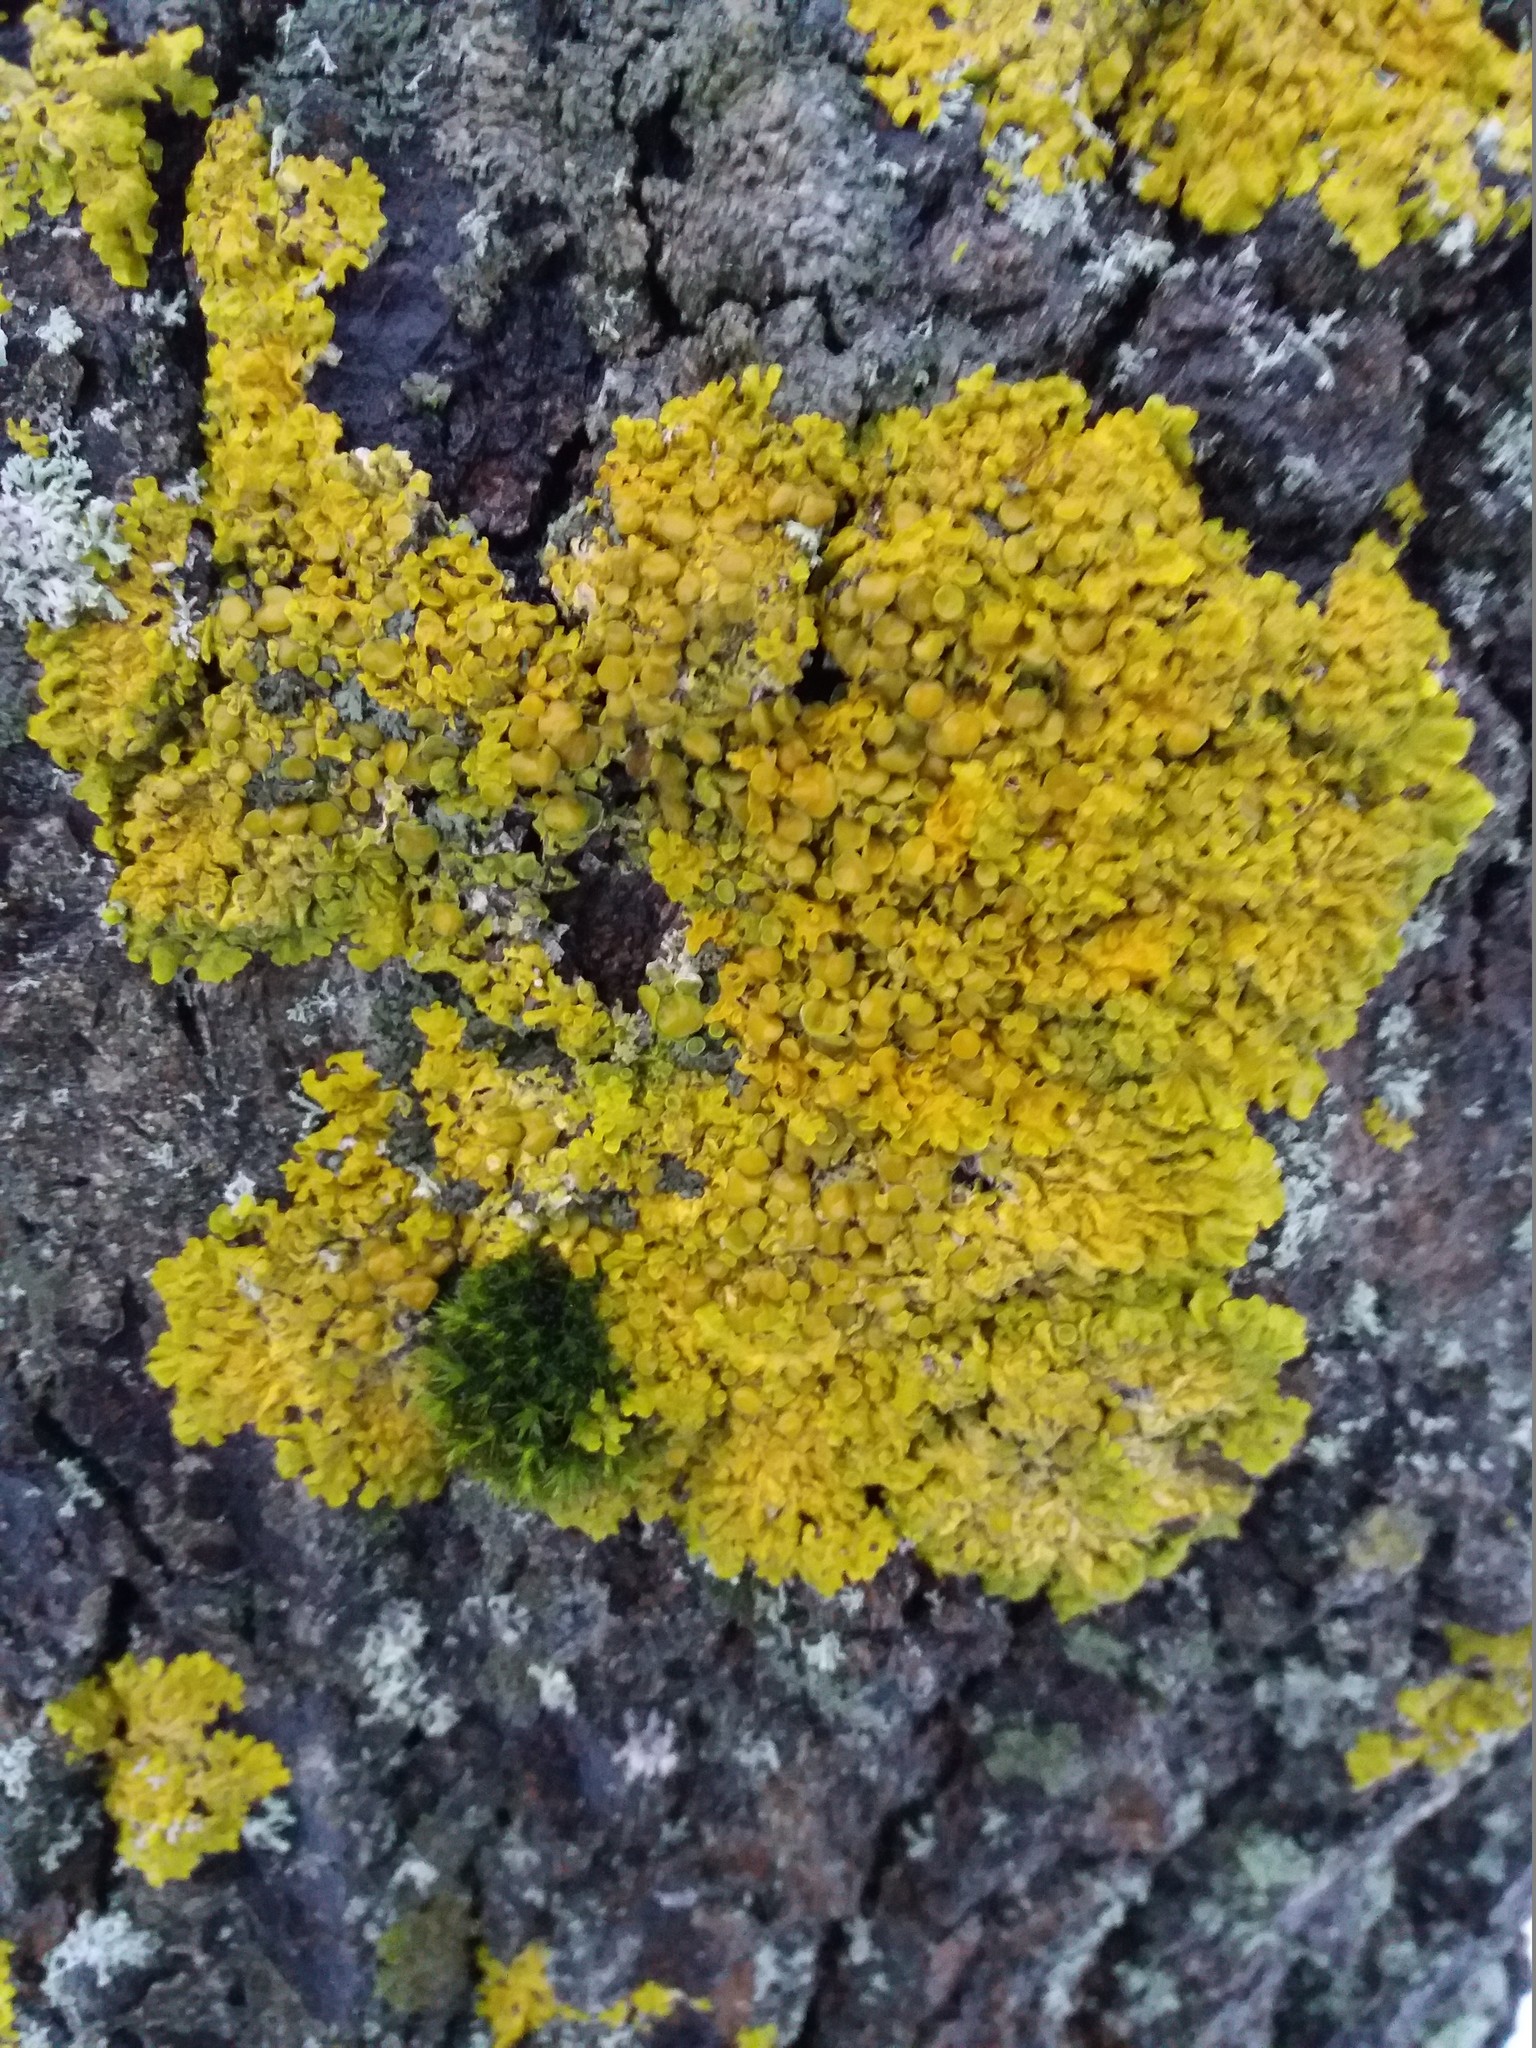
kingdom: Fungi
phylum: Ascomycota
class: Lecanoromycetes
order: Teloschistales
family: Teloschistaceae
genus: Xanthoria
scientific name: Xanthoria parietina
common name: Common orange lichen
